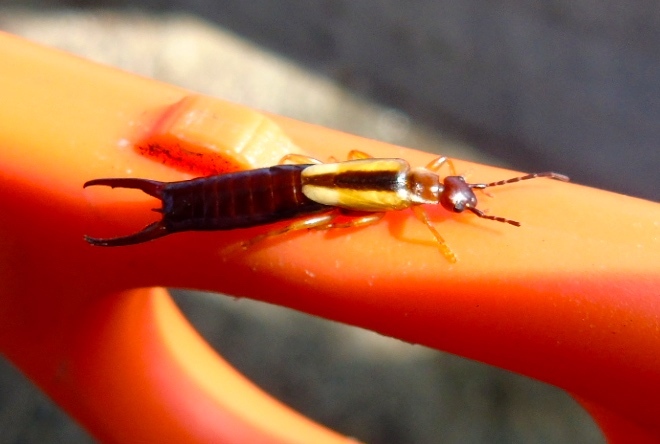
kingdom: Animalia
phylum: Arthropoda
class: Insecta
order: Dermaptera
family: Forficulidae
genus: Doru
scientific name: Doru taeniatum
